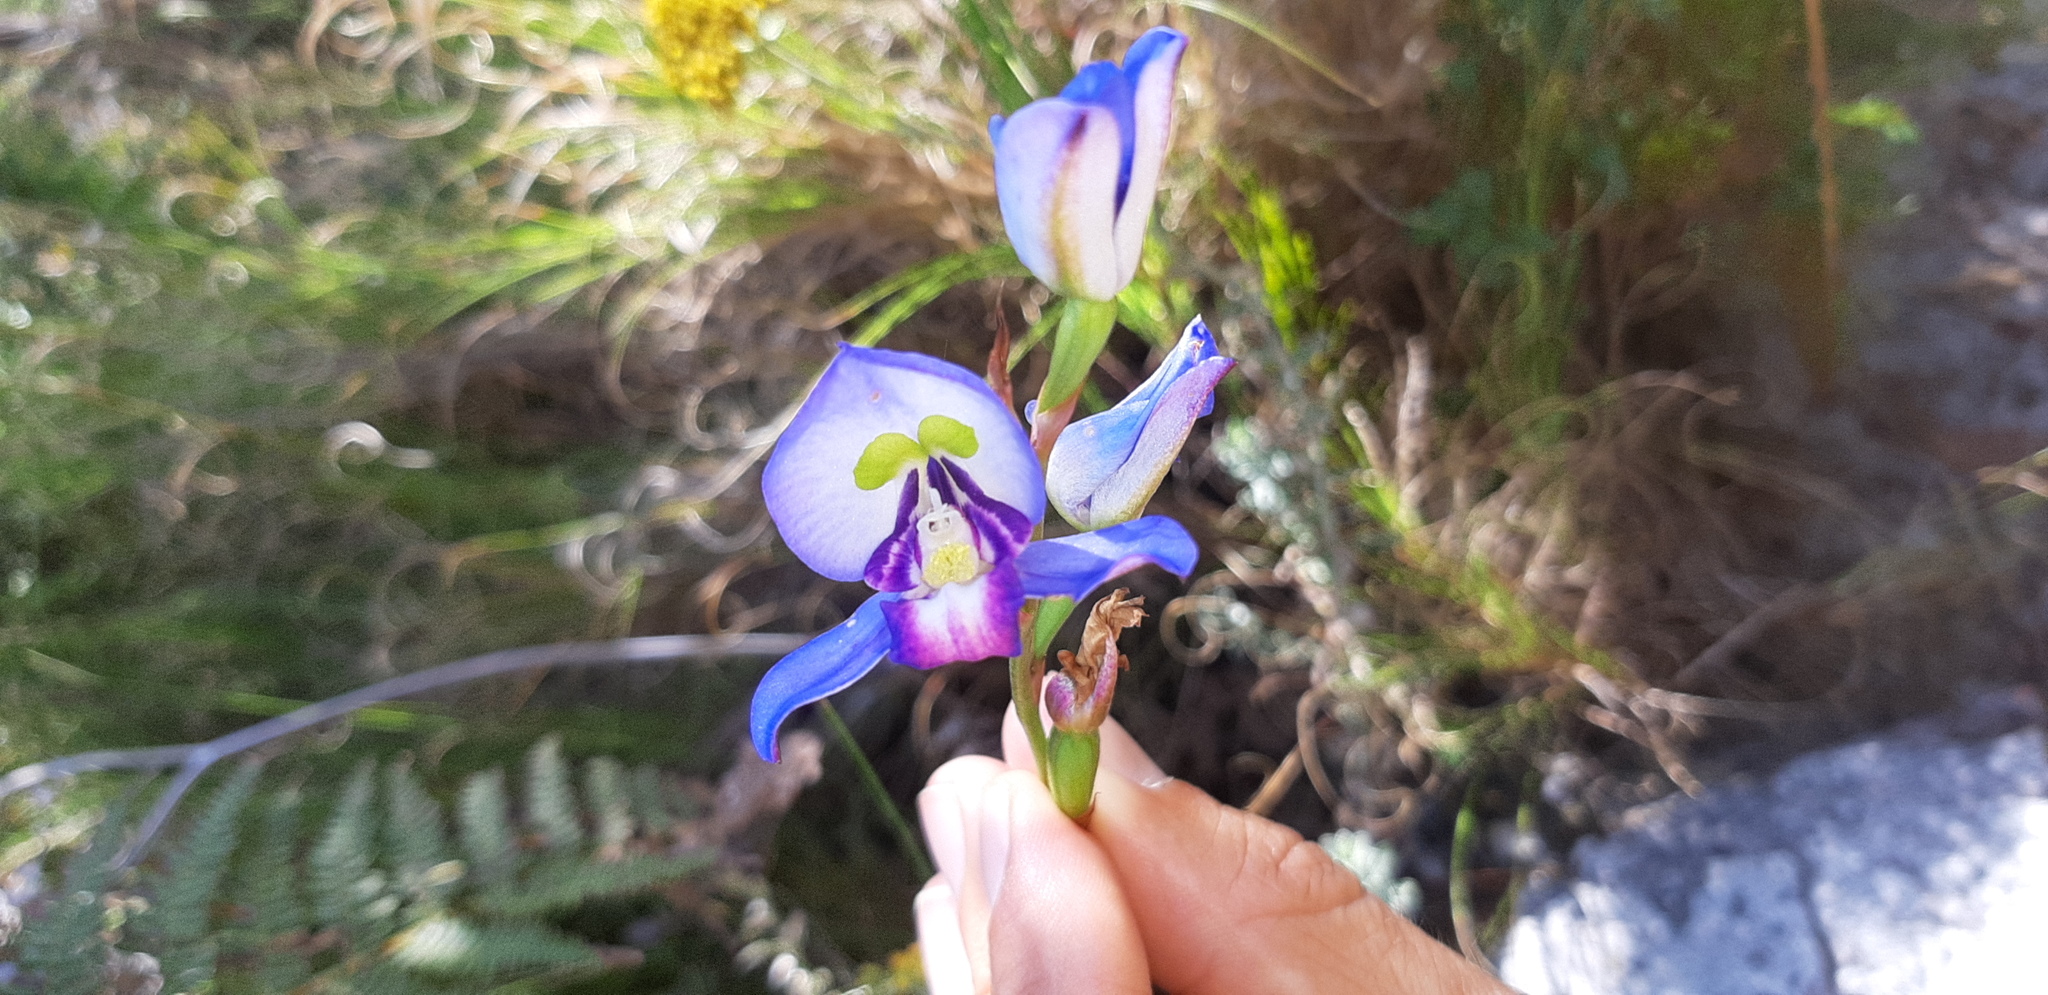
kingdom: Plantae
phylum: Tracheophyta
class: Liliopsida
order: Asparagales
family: Orchidaceae
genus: Disa
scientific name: Disa graminifolia
